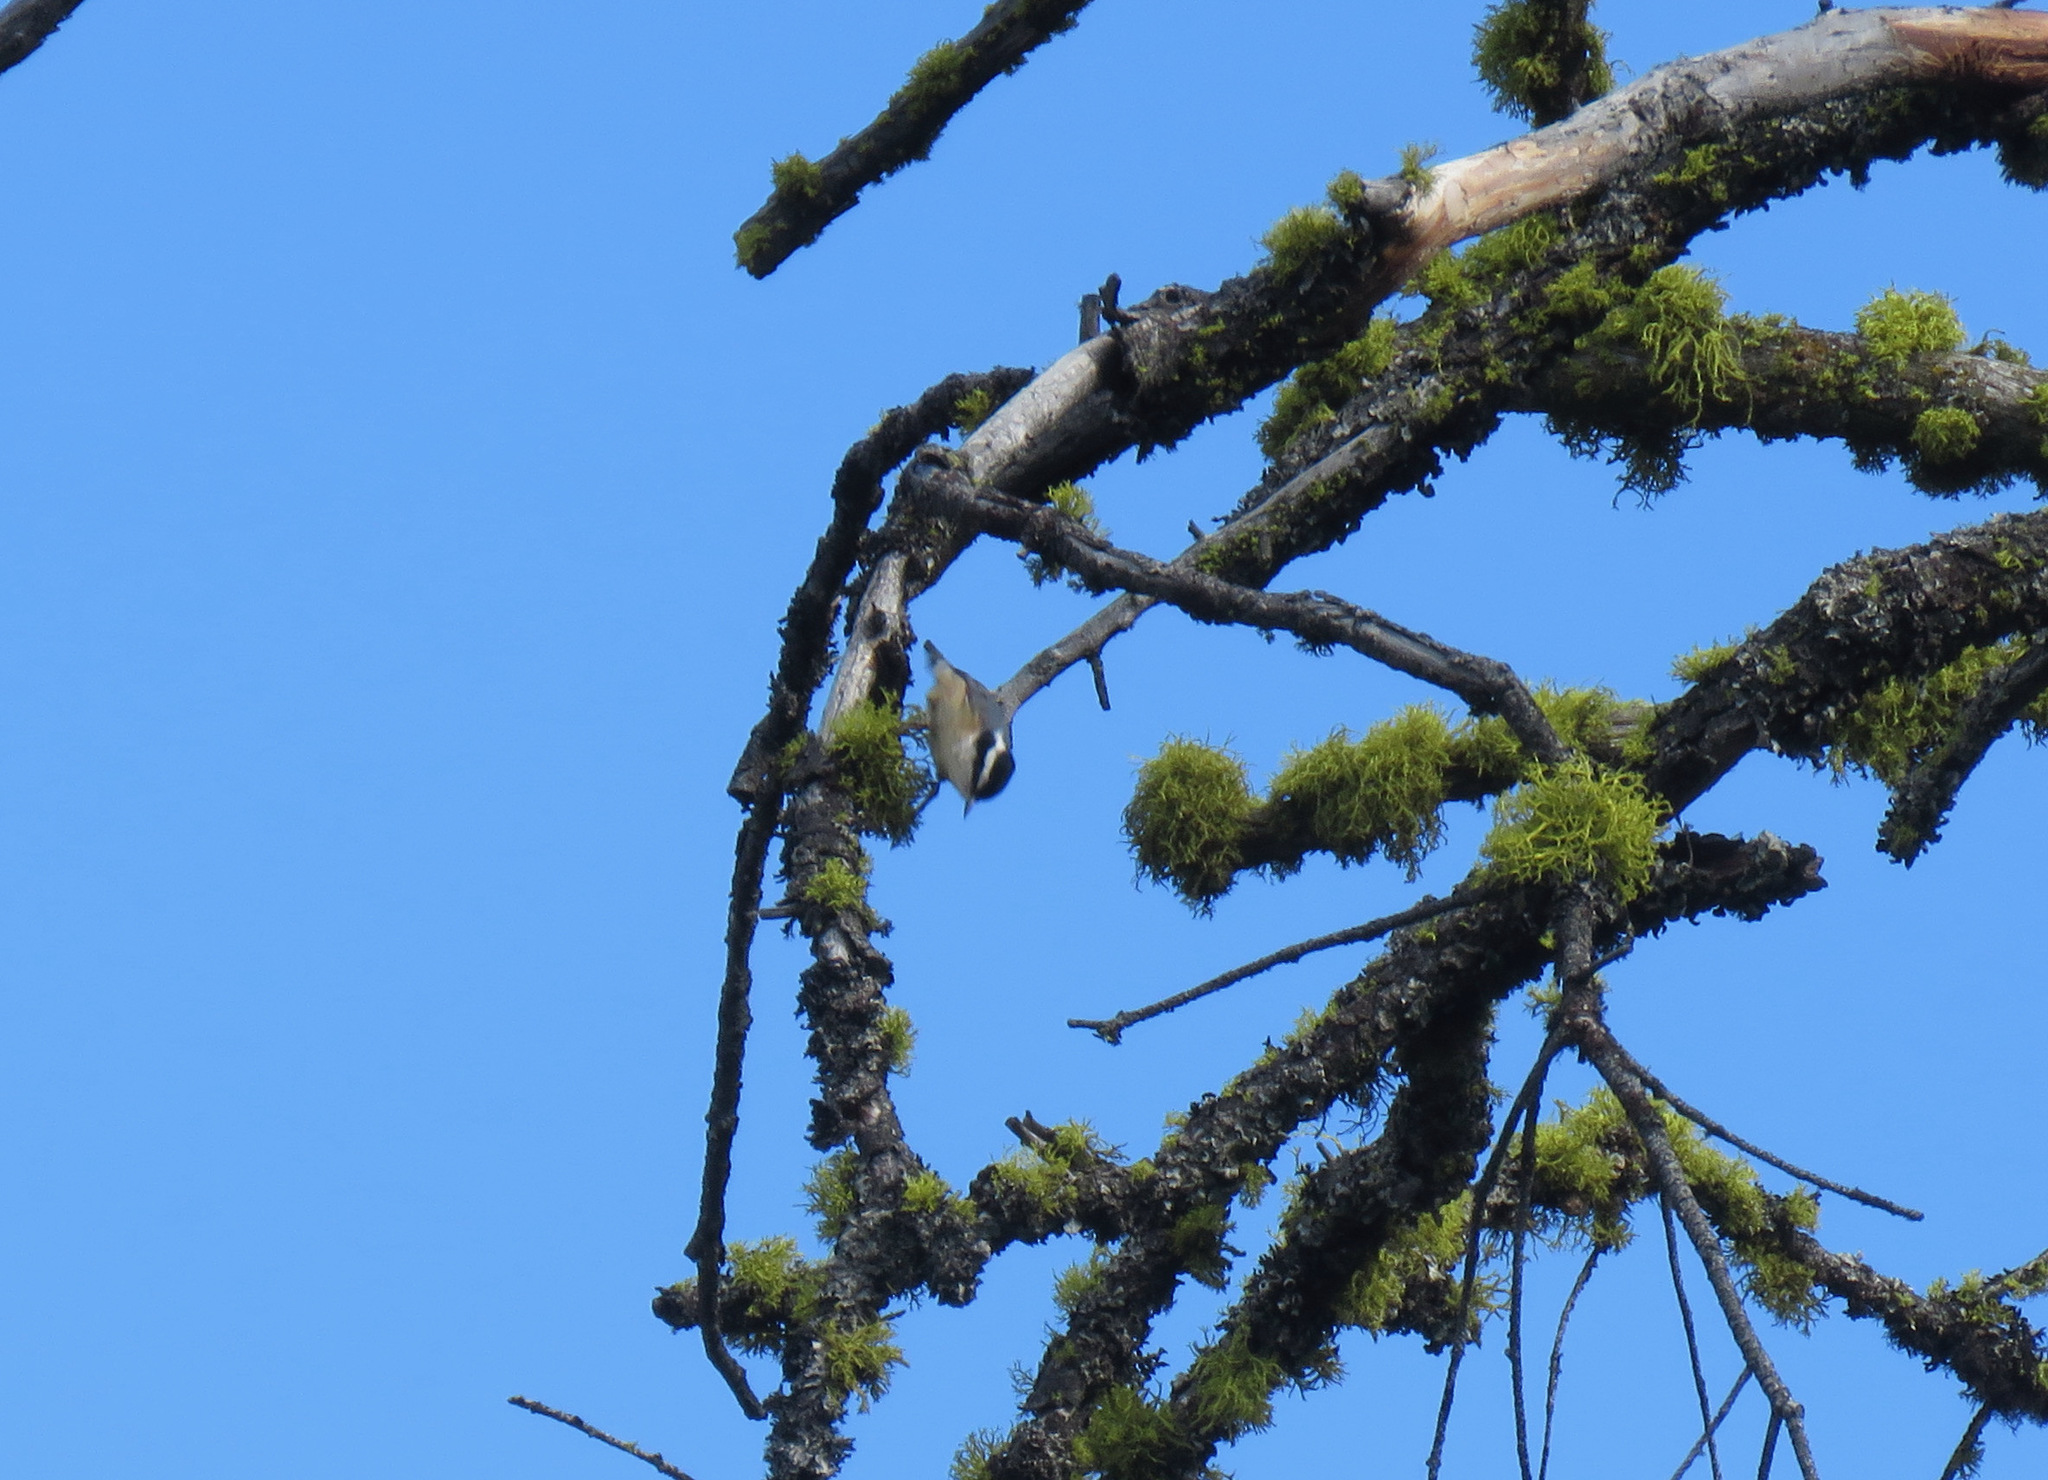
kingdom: Animalia
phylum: Chordata
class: Aves
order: Passeriformes
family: Sittidae
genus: Sitta
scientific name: Sitta canadensis
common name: Red-breasted nuthatch
